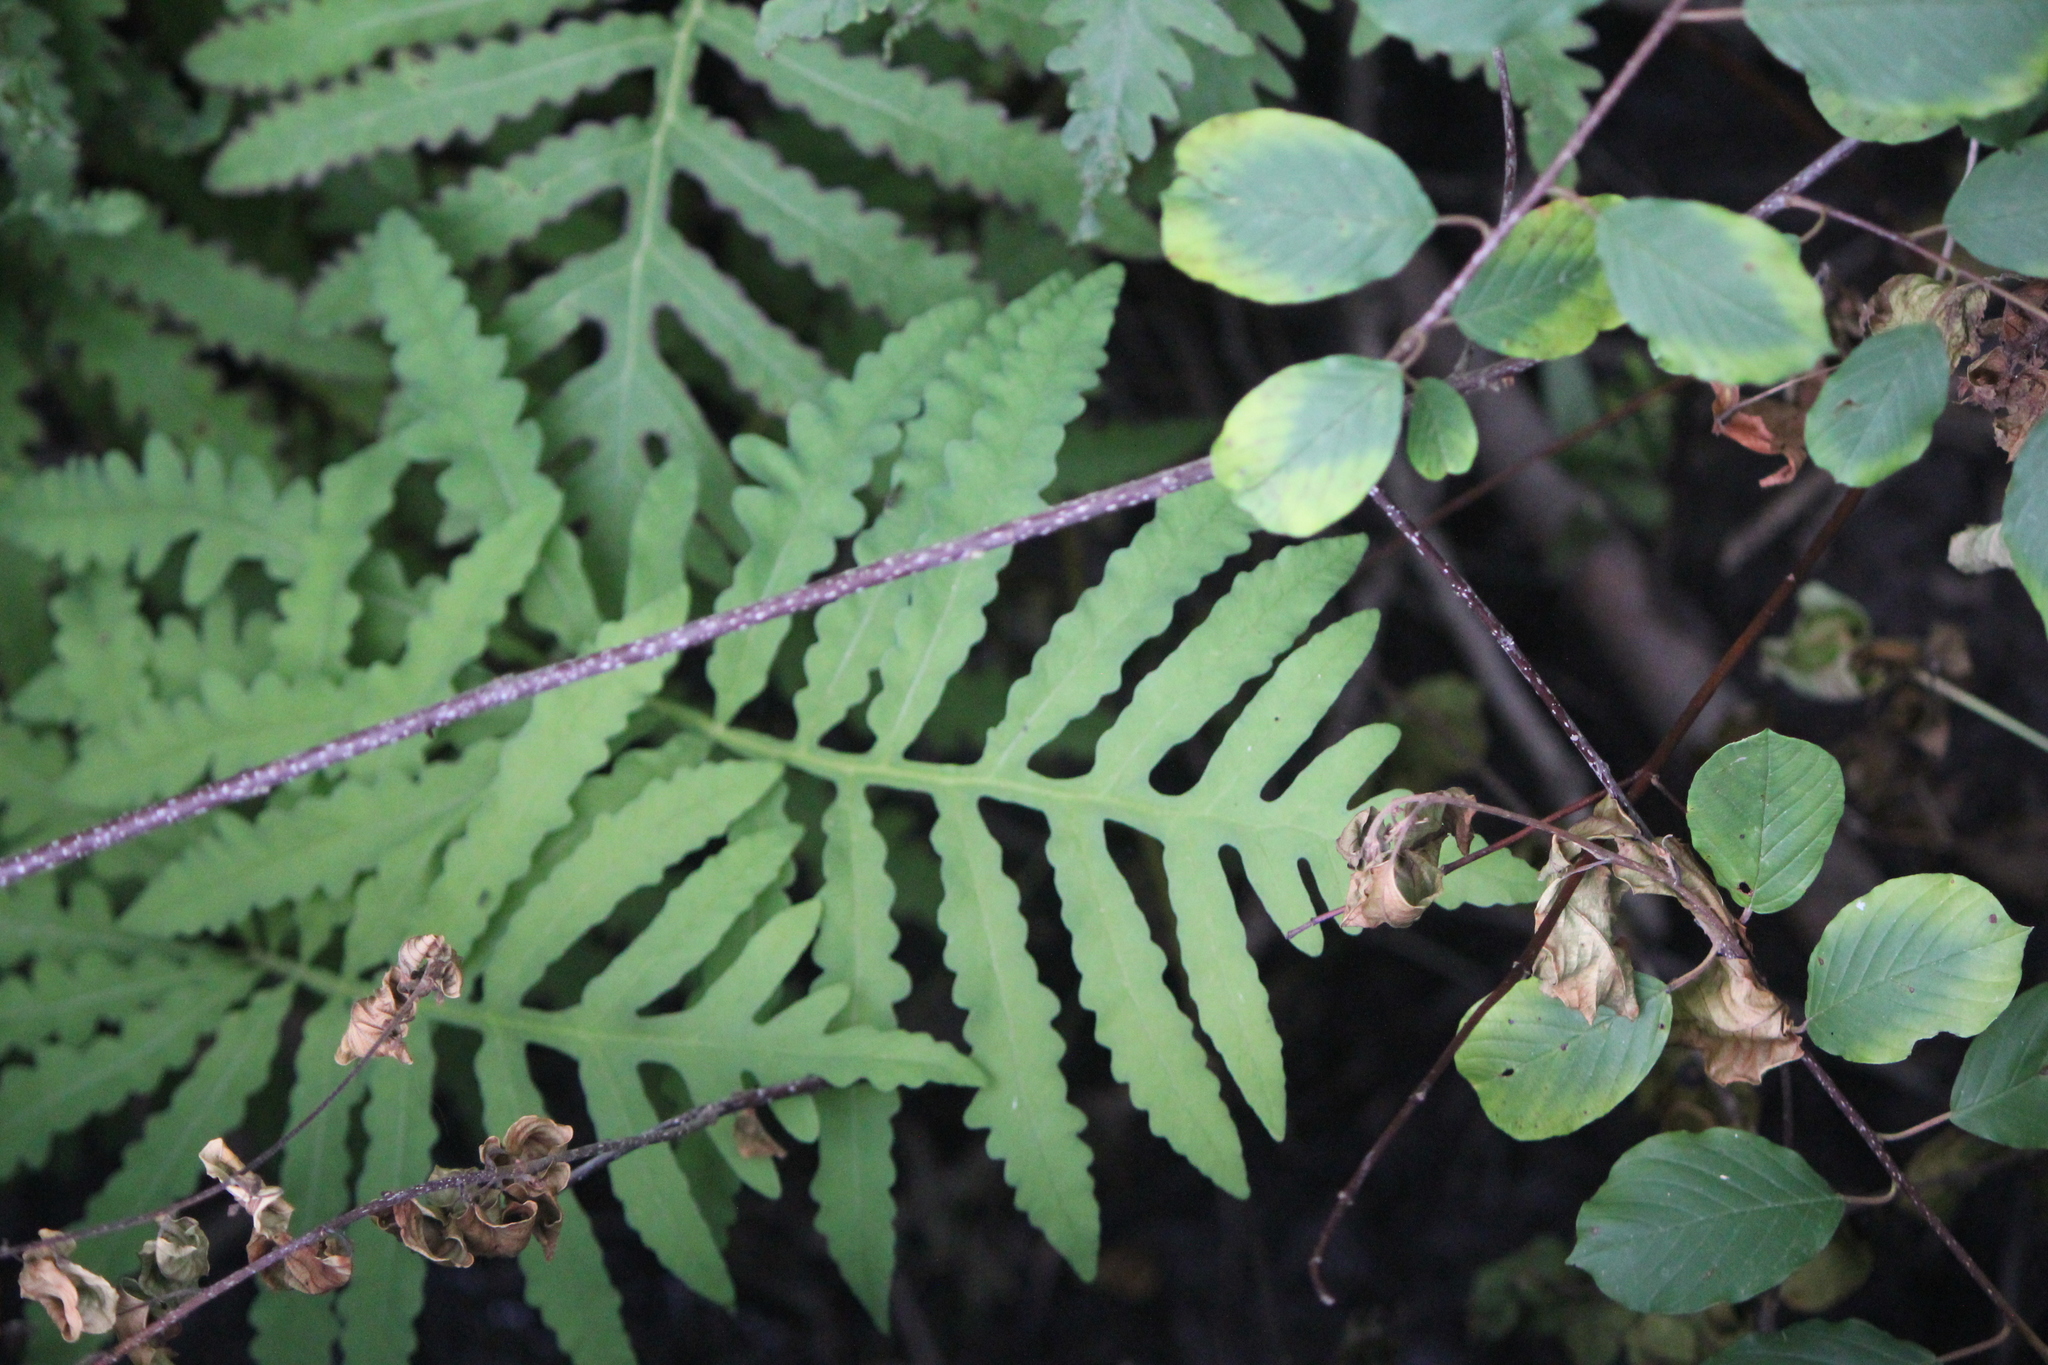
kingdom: Plantae
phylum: Tracheophyta
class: Polypodiopsida
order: Polypodiales
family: Onocleaceae
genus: Onoclea
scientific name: Onoclea sensibilis
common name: Sensitive fern
